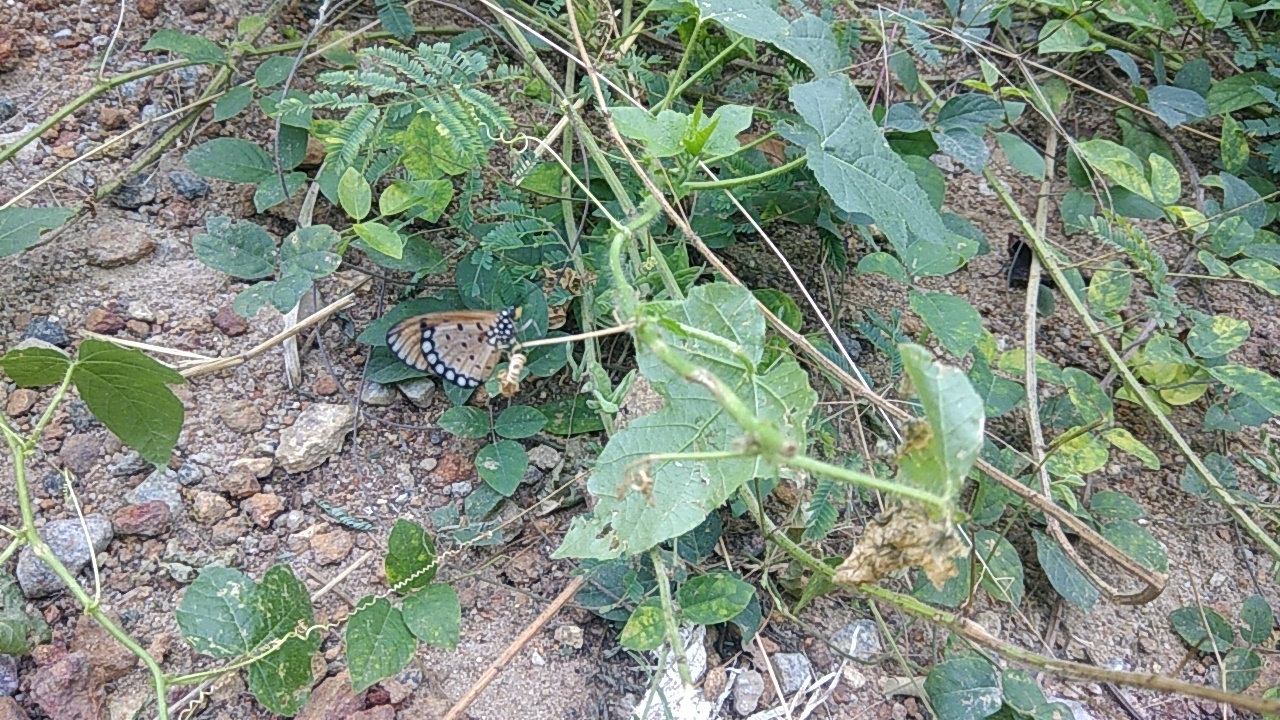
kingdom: Animalia
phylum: Arthropoda
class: Insecta
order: Lepidoptera
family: Nymphalidae
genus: Acraea
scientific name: Acraea terpsicore
